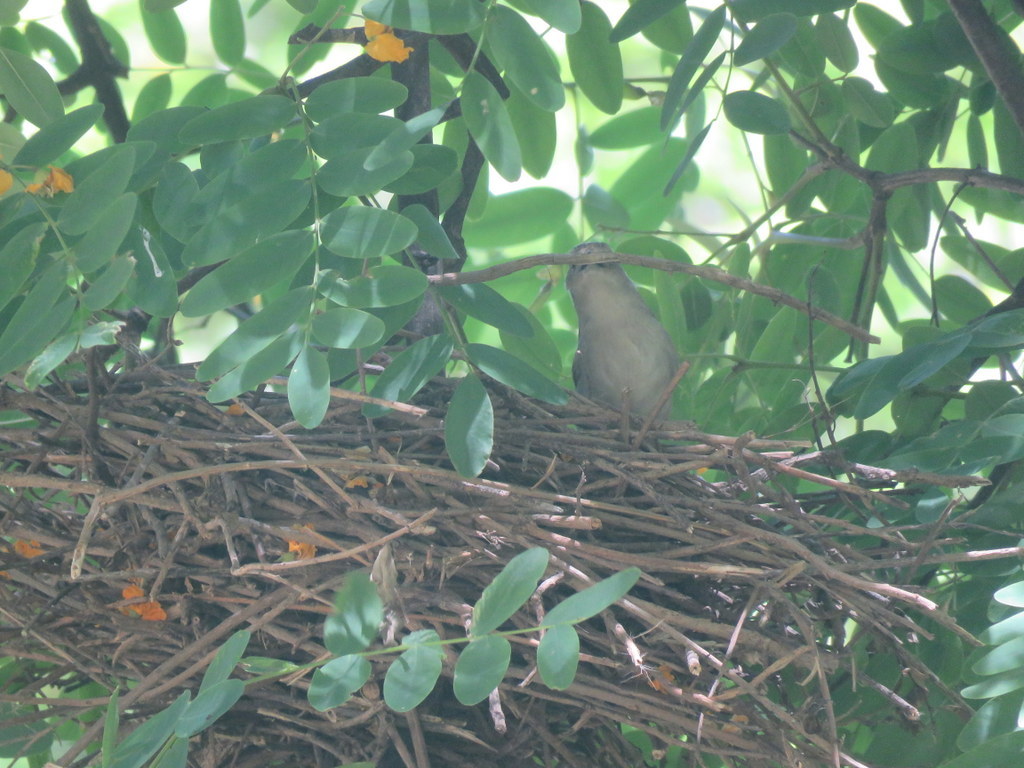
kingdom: Animalia
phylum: Chordata
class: Aves
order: Passeriformes
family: Furnariidae
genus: Phacellodomus
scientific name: Phacellodomus sibilatrix
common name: Little thornbird
